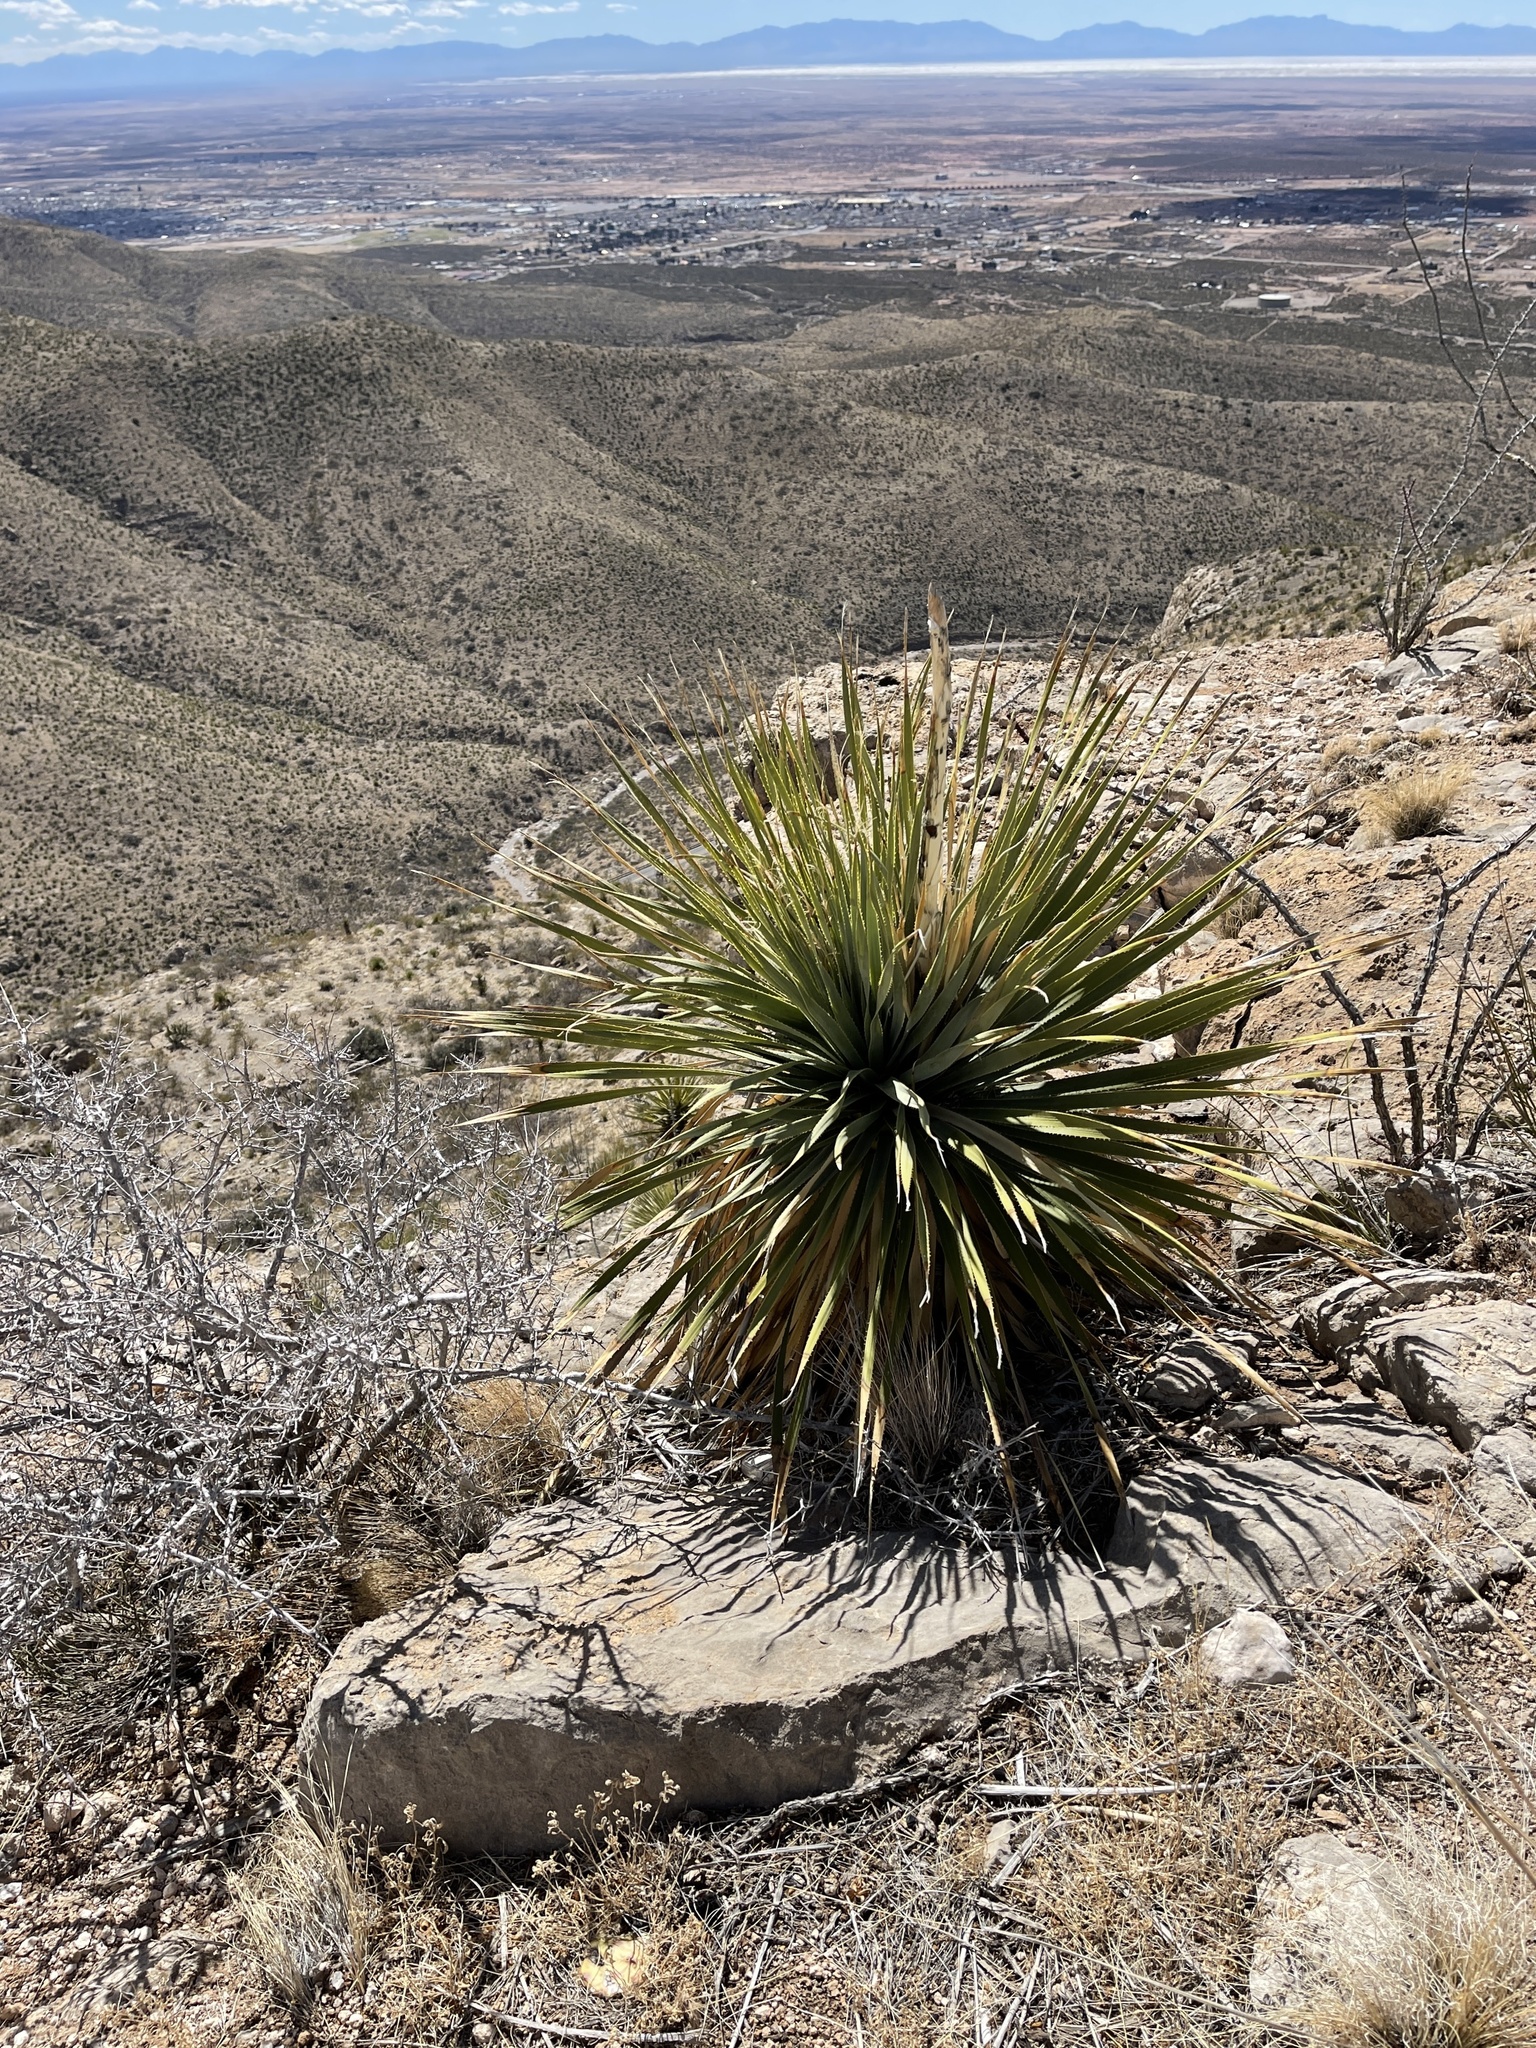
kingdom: Plantae
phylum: Tracheophyta
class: Liliopsida
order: Asparagales
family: Asparagaceae
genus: Dasylirion
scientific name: Dasylirion wheeleri
